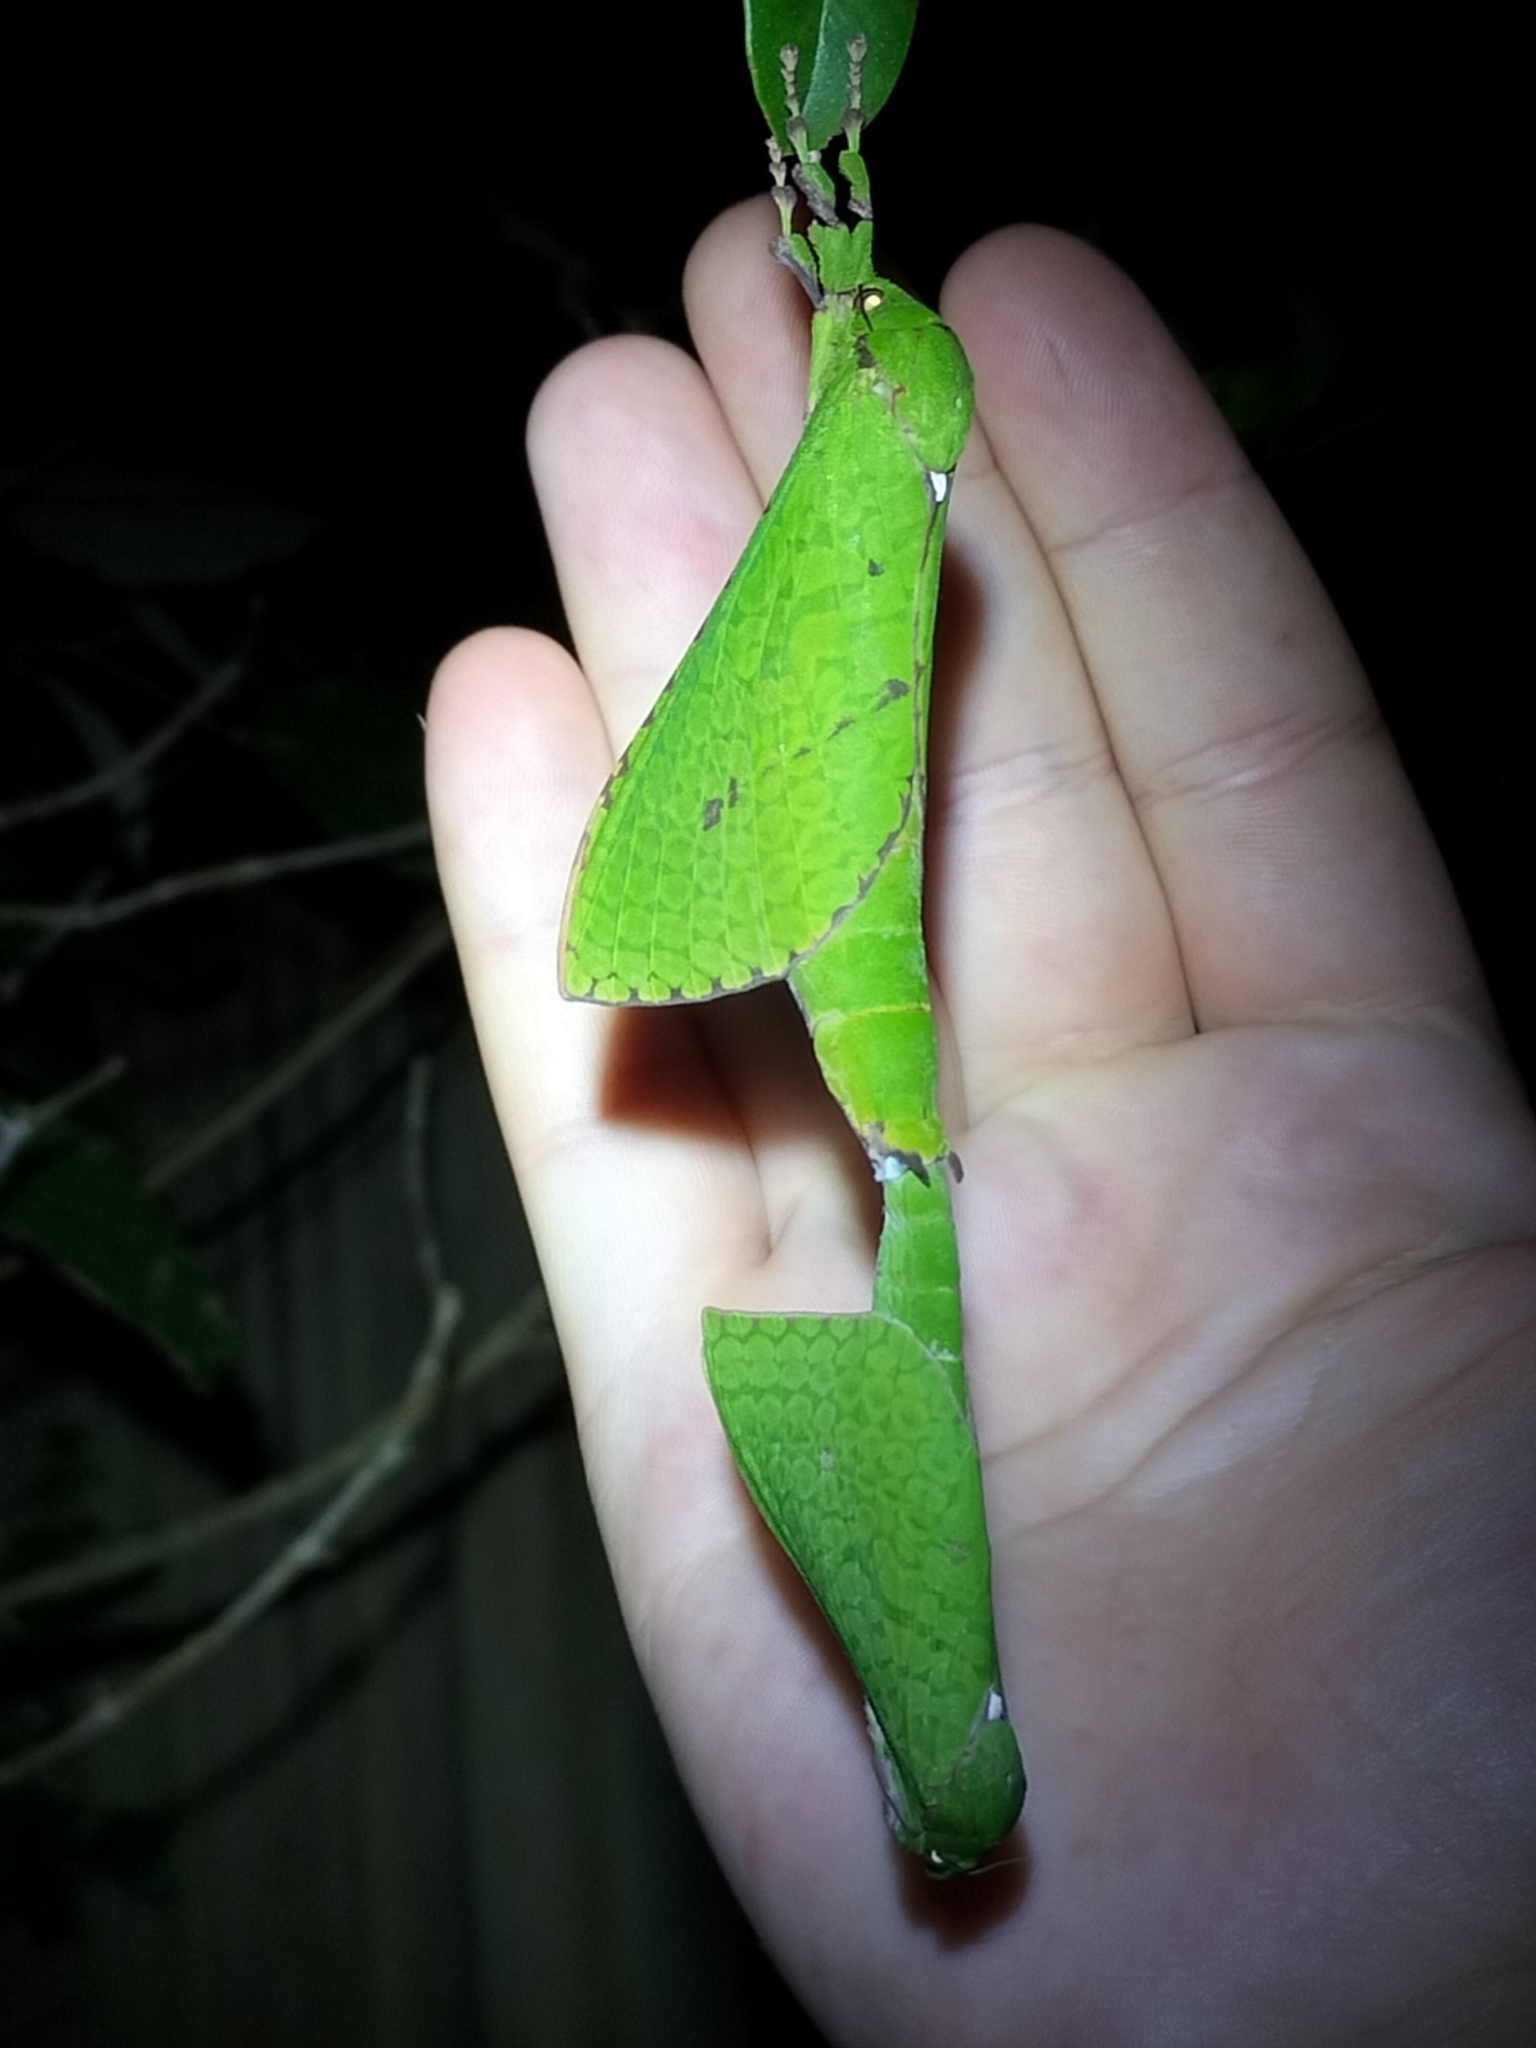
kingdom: Animalia
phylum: Arthropoda
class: Insecta
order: Lepidoptera
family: Hepialidae
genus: Aenetus
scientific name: Aenetus edwardsi
